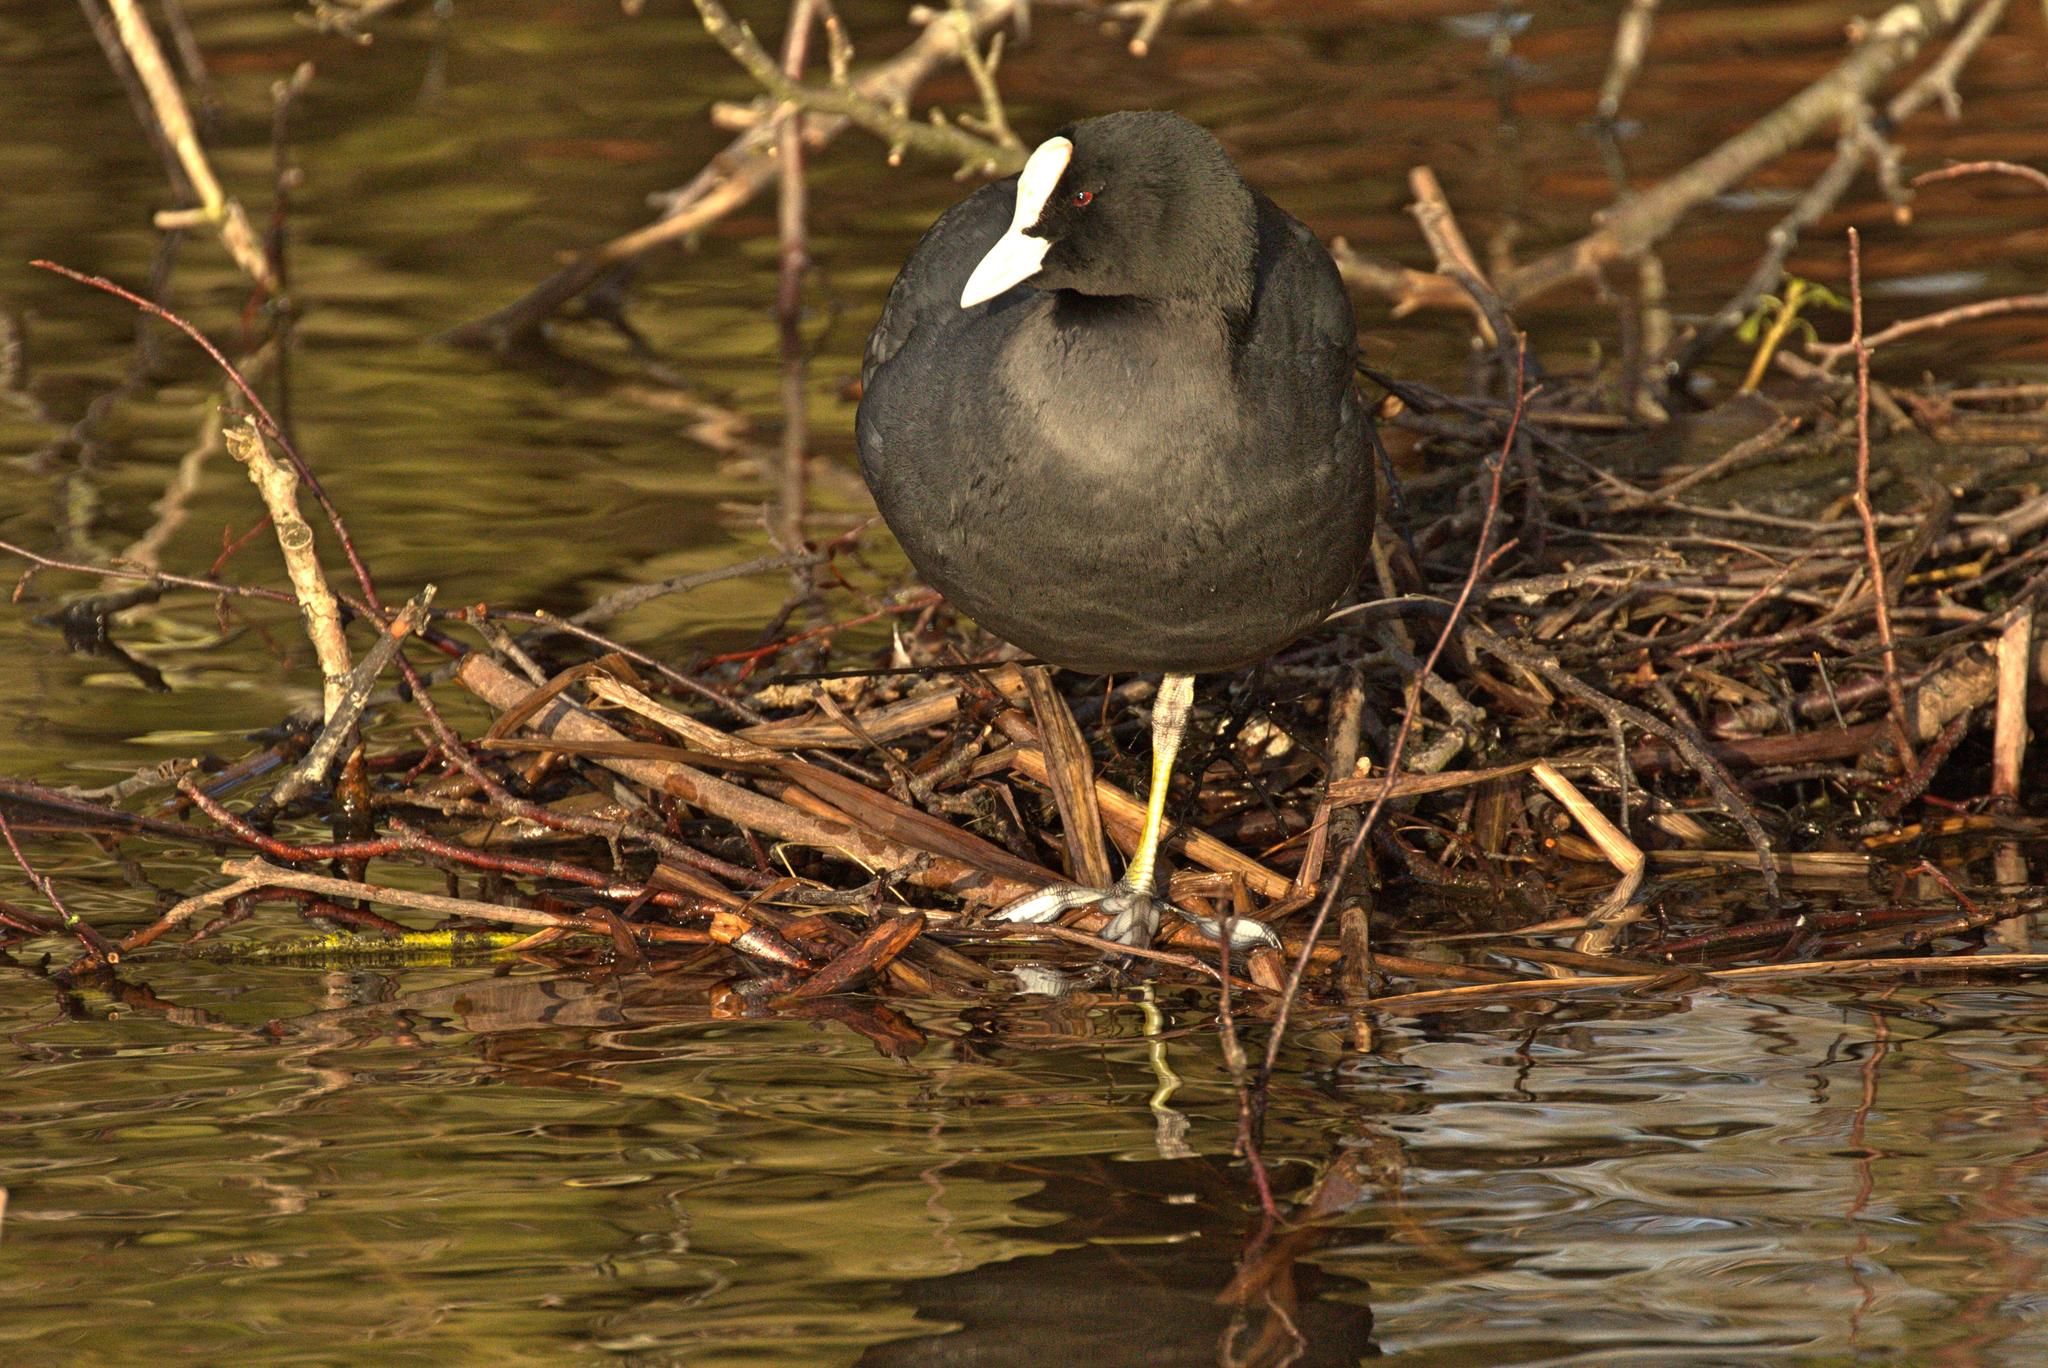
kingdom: Animalia
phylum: Chordata
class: Aves
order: Gruiformes
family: Rallidae
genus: Fulica
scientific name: Fulica atra
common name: Eurasian coot
